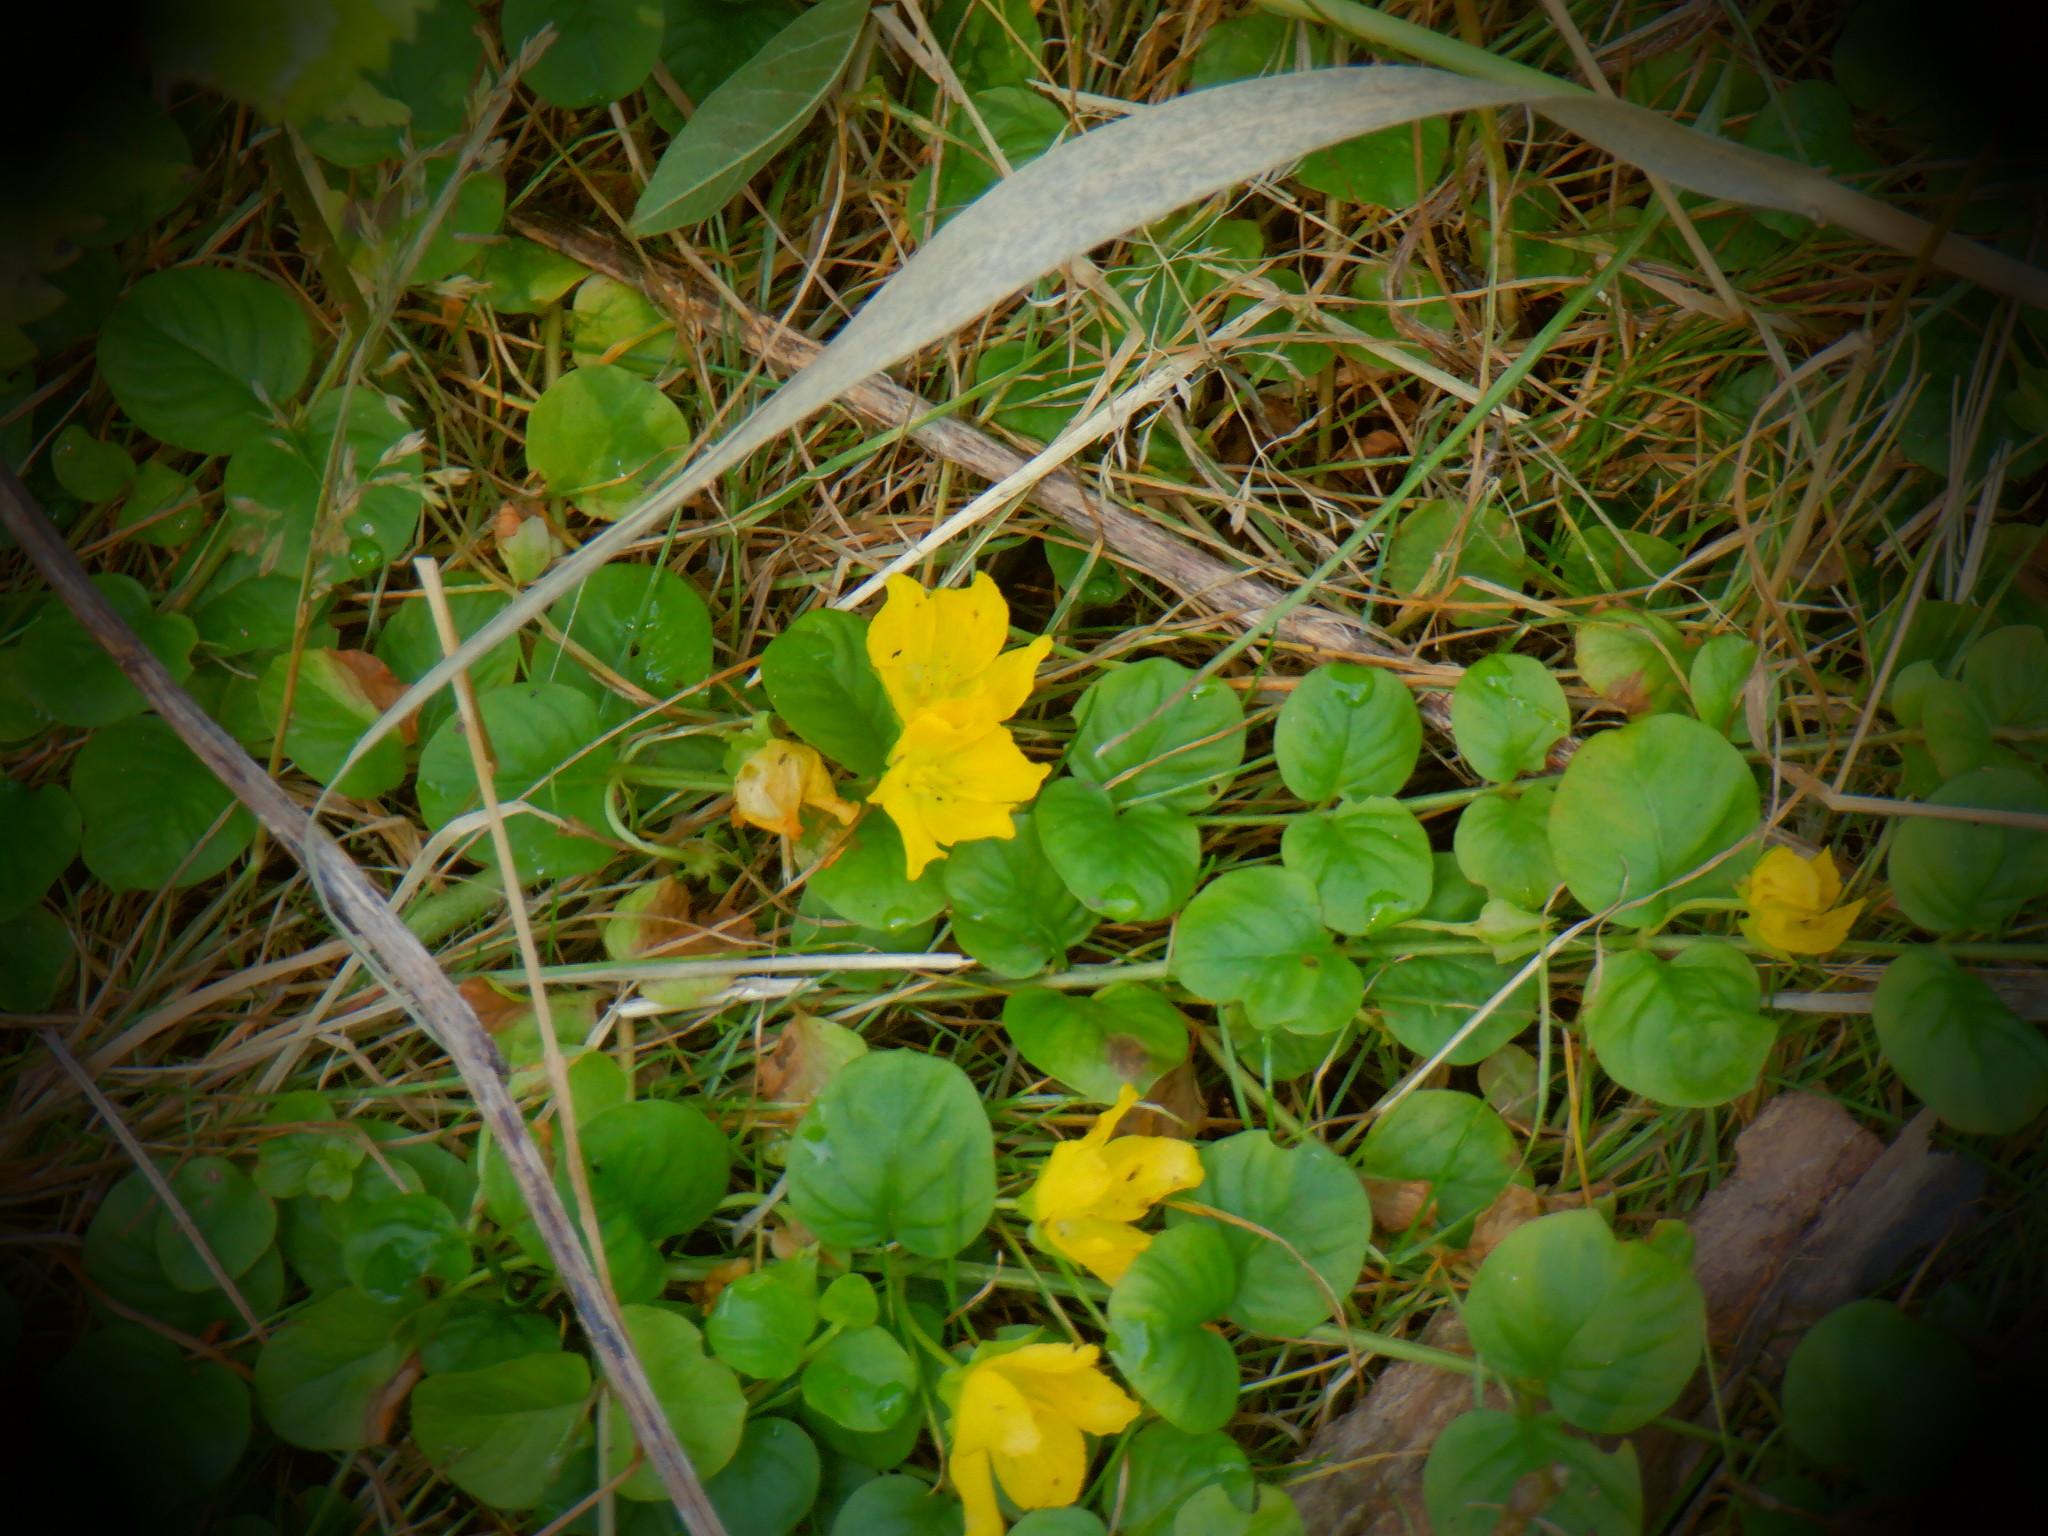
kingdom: Plantae
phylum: Tracheophyta
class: Magnoliopsida
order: Ericales
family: Primulaceae
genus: Lysimachia
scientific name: Lysimachia nummularia
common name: Moneywort
